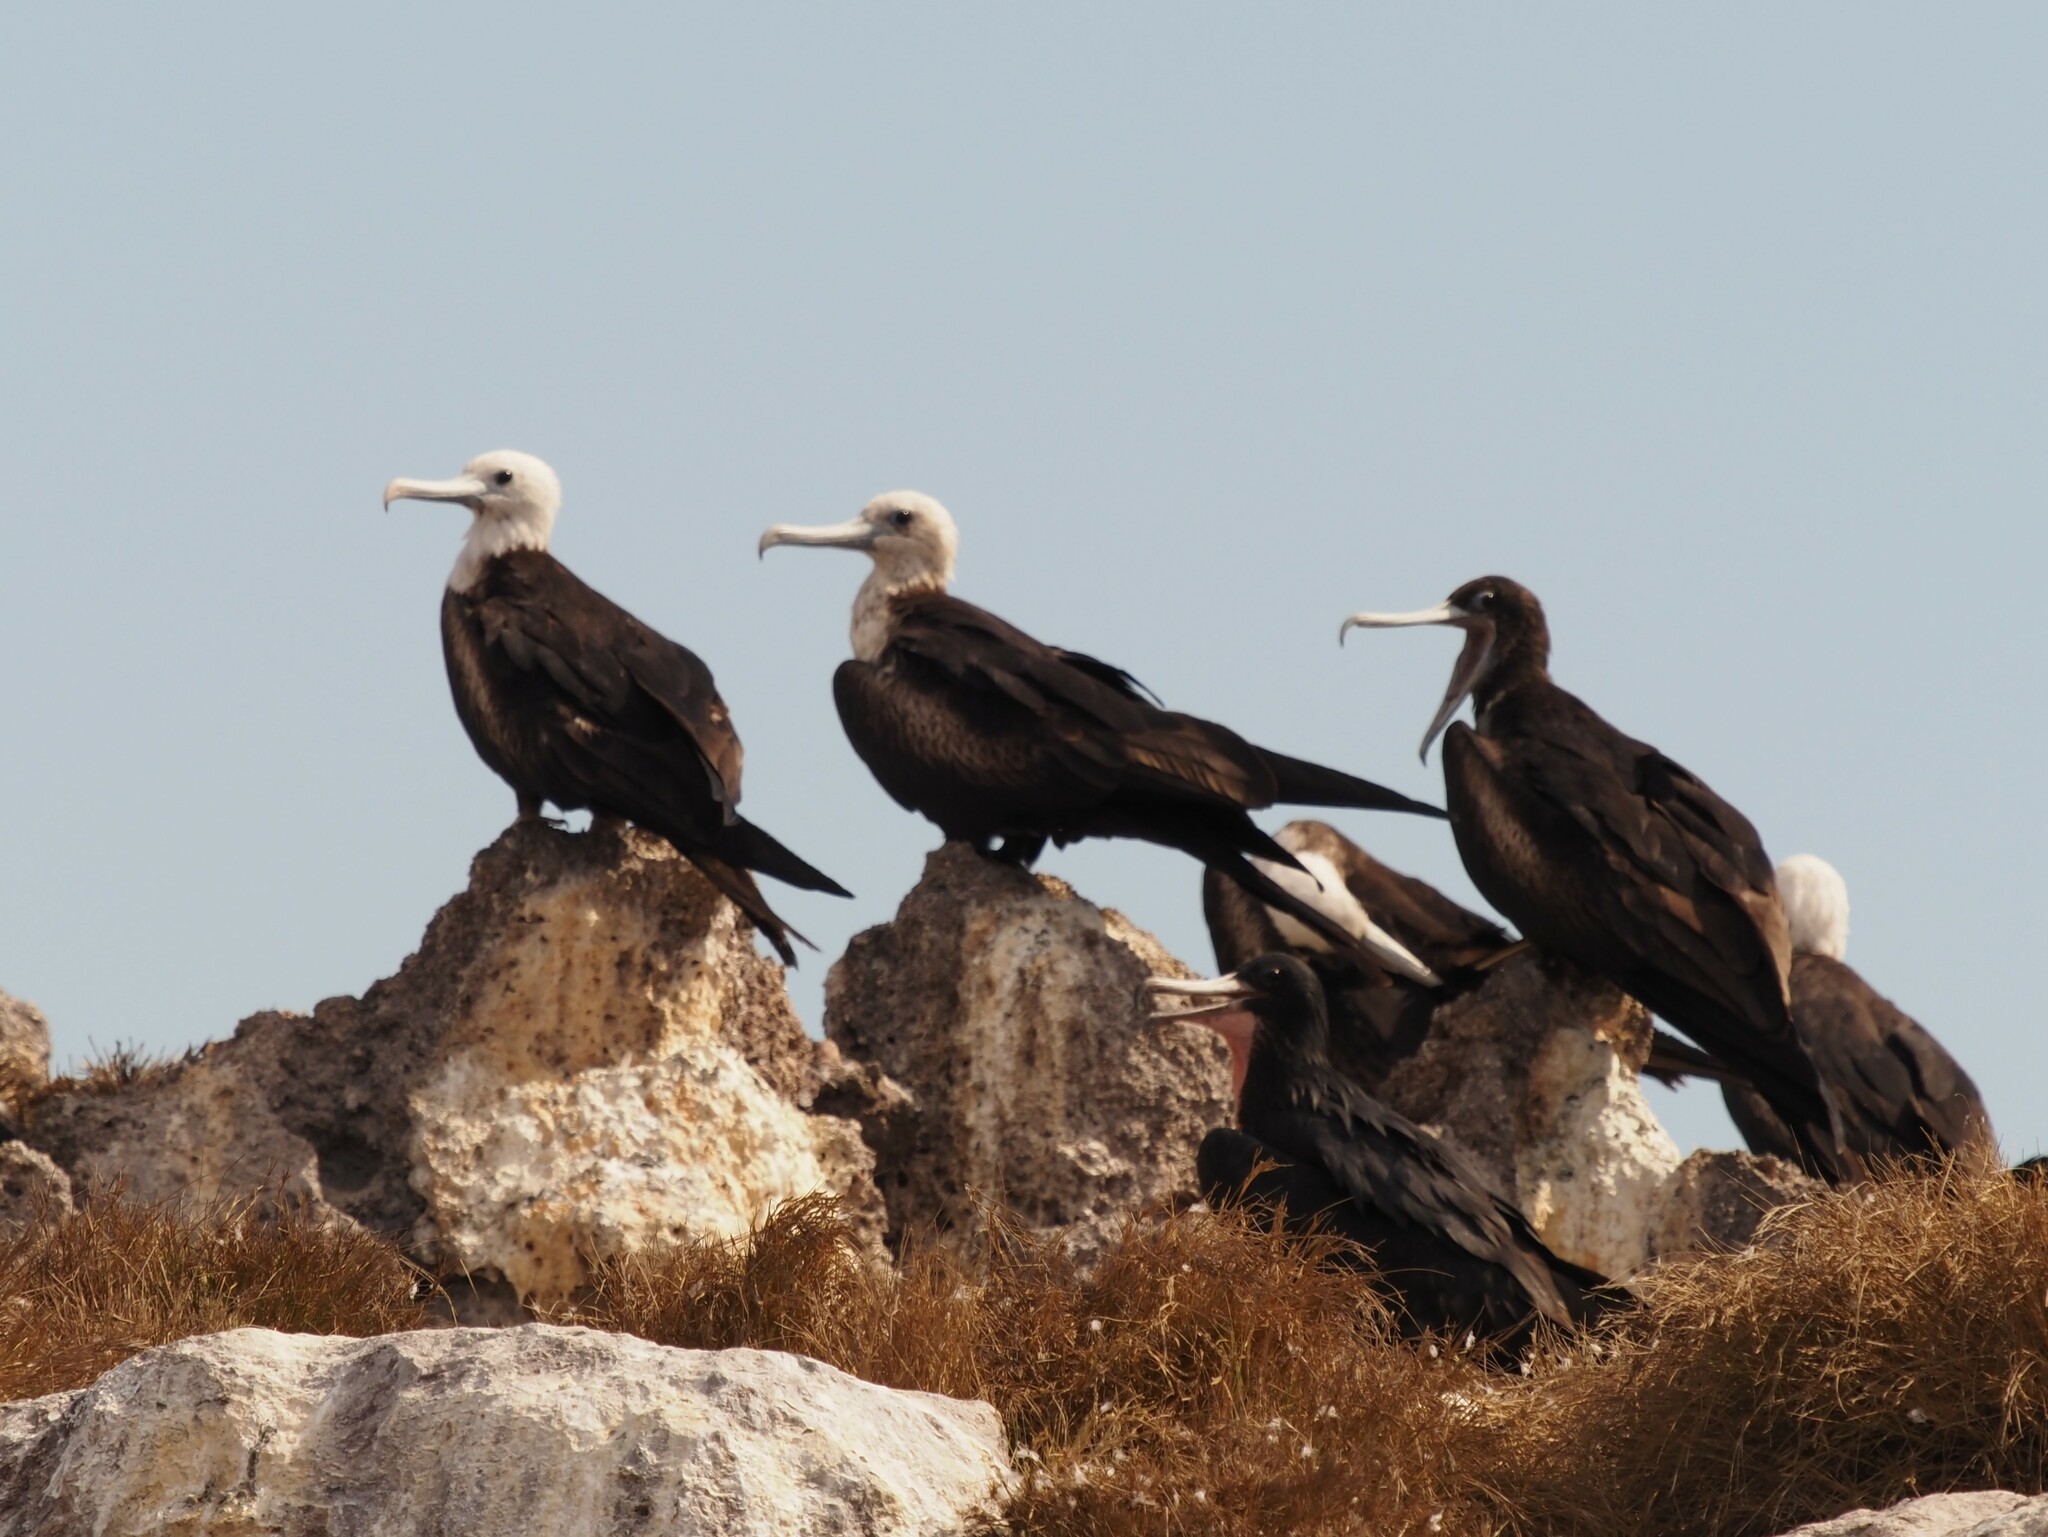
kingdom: Animalia
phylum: Chordata
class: Aves
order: Suliformes
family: Fregatidae
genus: Fregata
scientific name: Fregata magnificens
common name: Magnificent frigatebird
